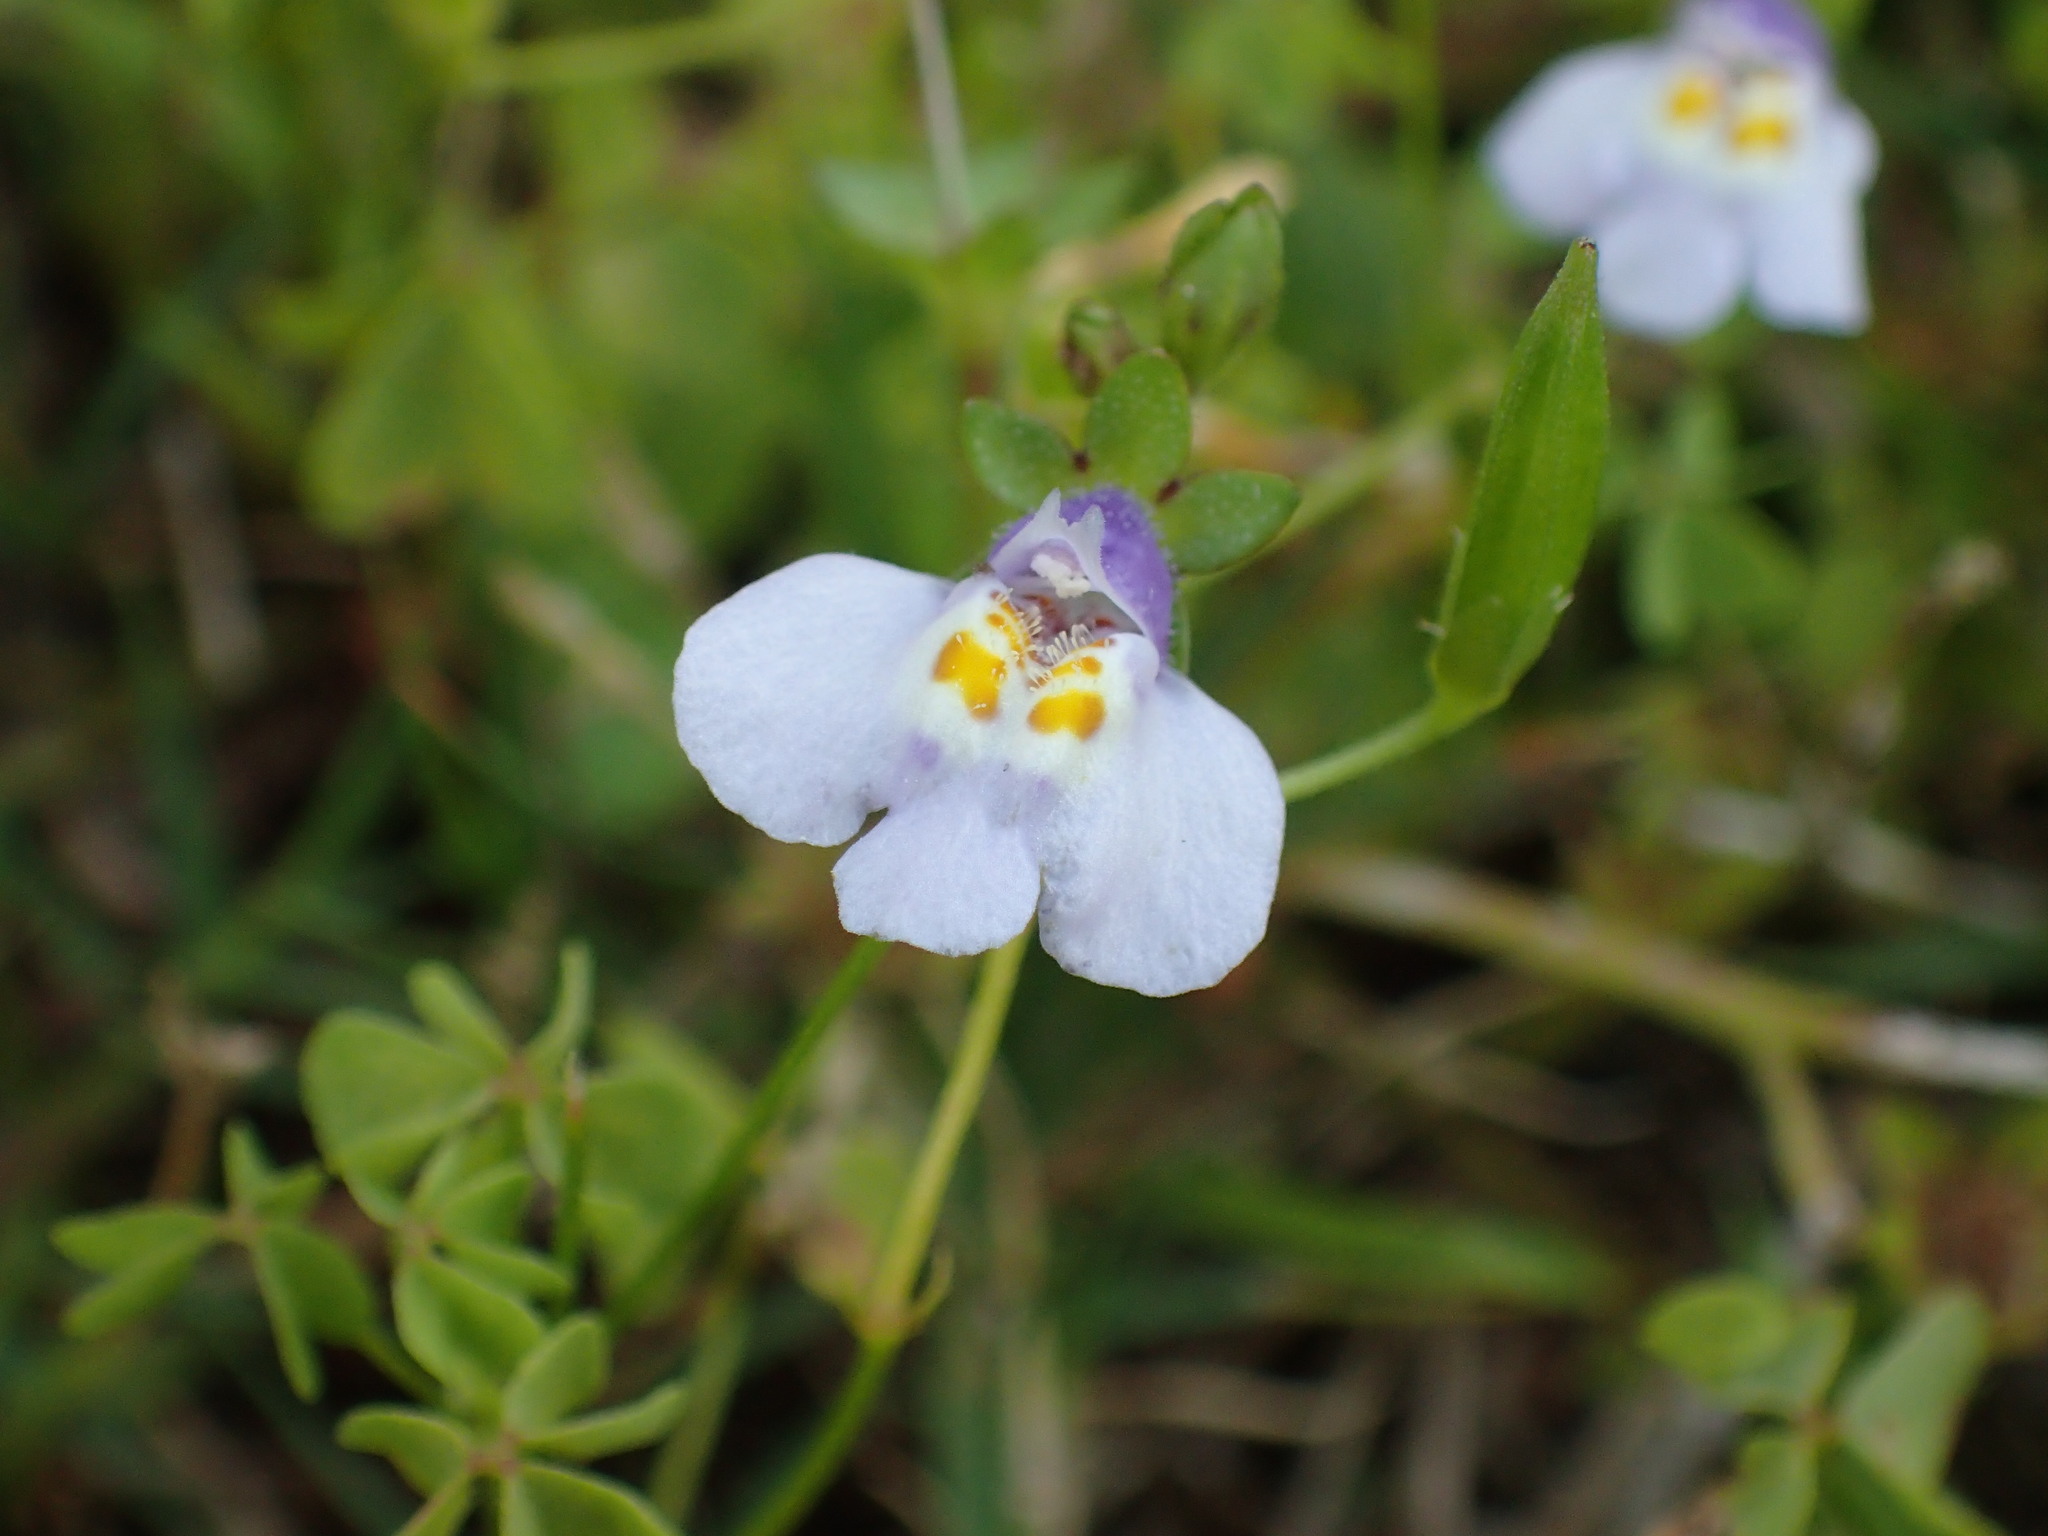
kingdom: Plantae
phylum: Tracheophyta
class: Magnoliopsida
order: Lamiales
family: Mazaceae
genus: Mazus
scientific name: Mazus pumilus
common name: Japanese mazus
